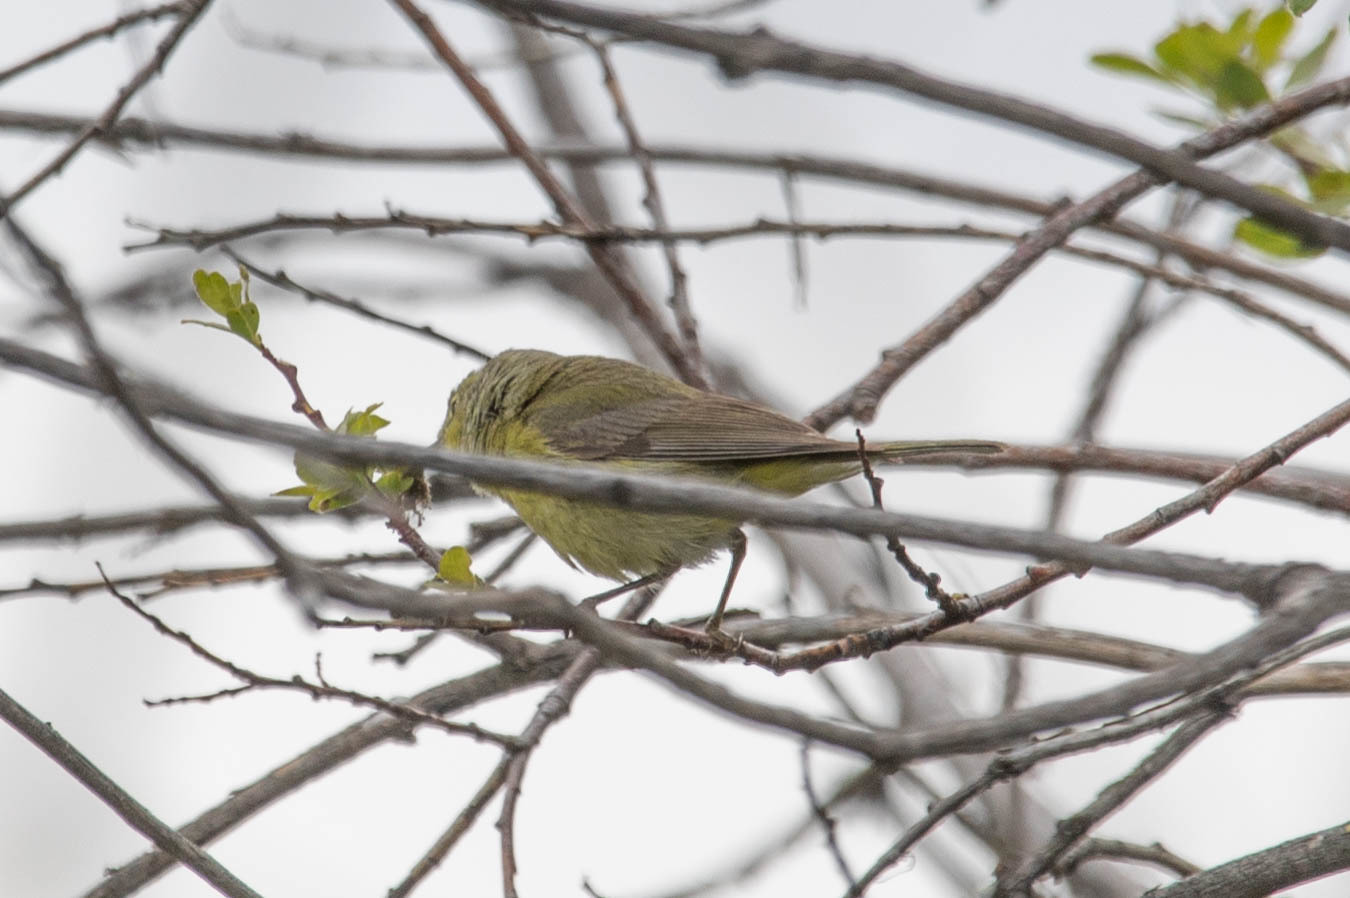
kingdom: Animalia
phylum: Chordata
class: Aves
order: Passeriformes
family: Parulidae
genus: Leiothlypis
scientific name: Leiothlypis celata
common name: Orange-crowned warbler
